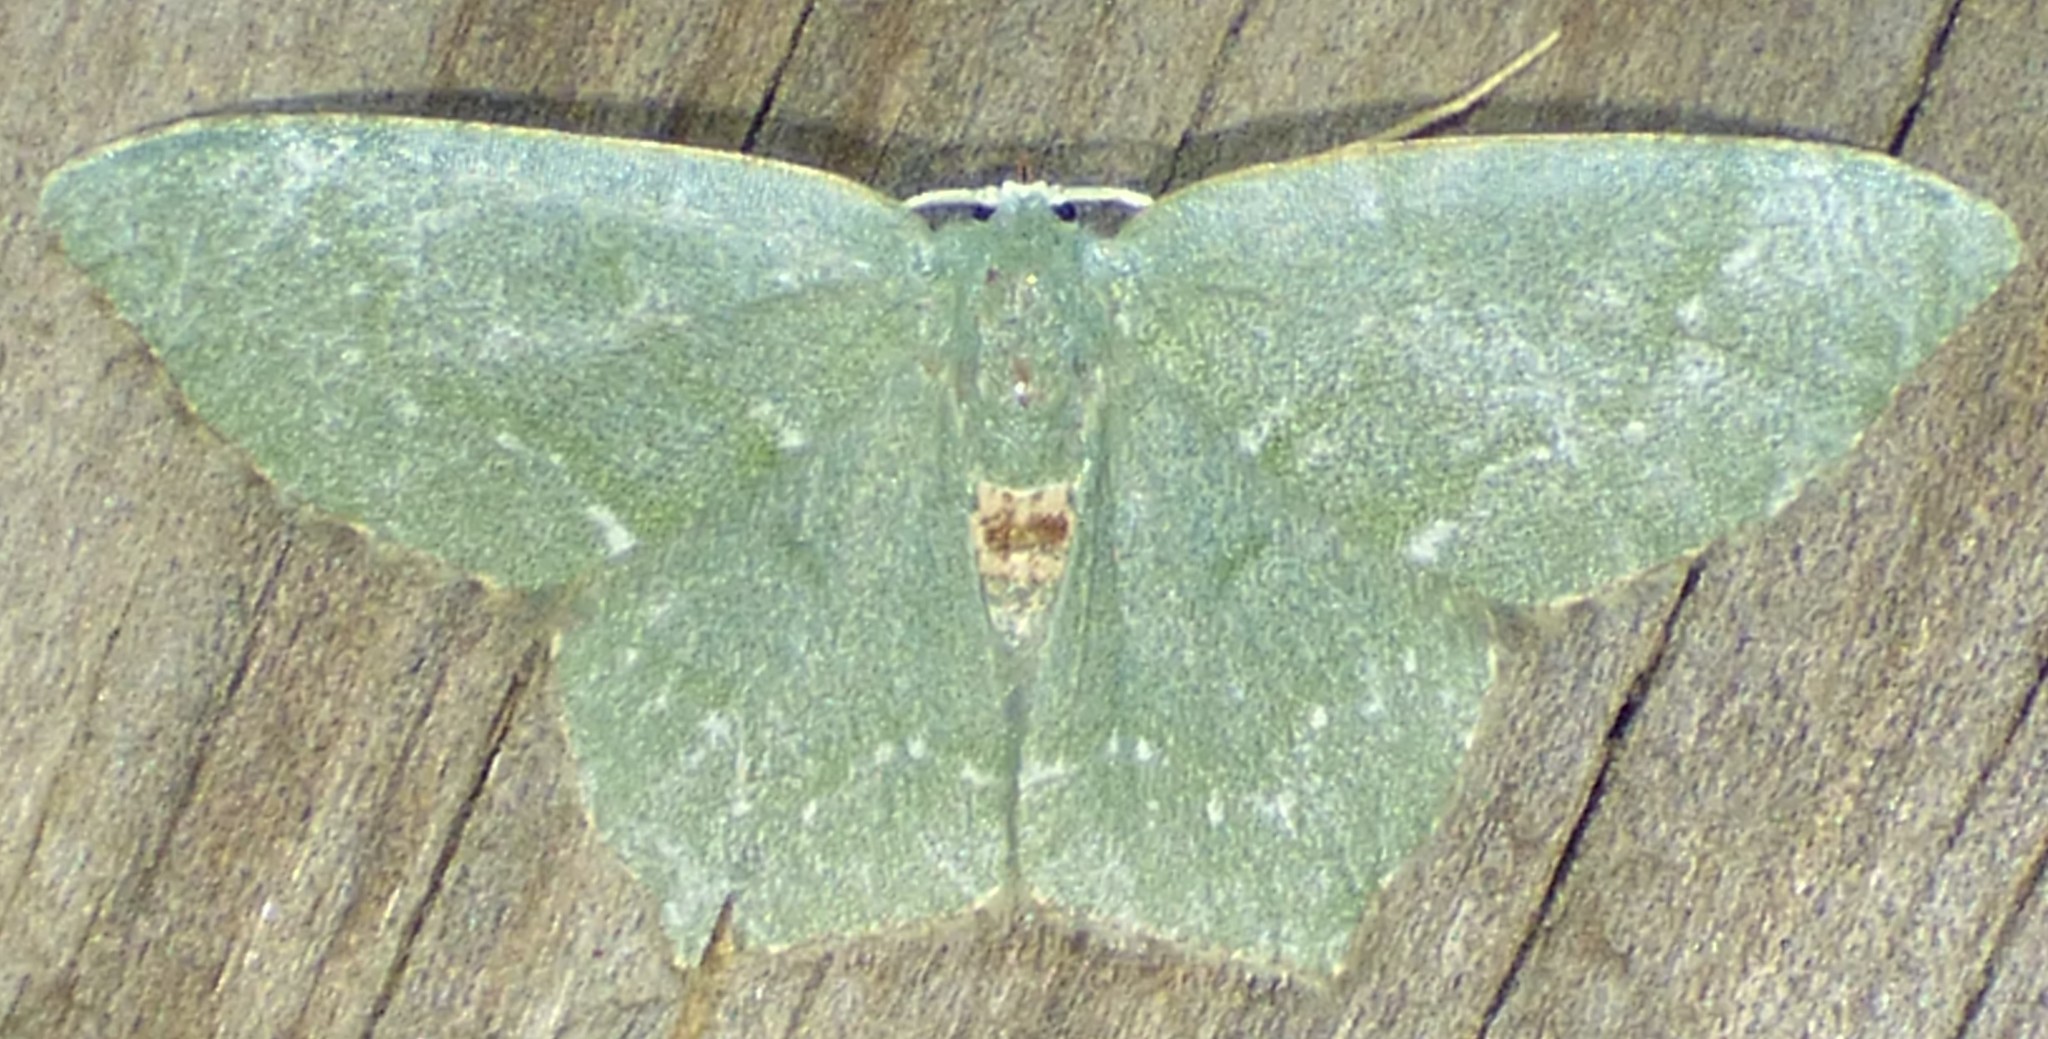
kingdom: Animalia
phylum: Arthropoda
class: Insecta
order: Lepidoptera
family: Geometridae
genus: Chloropteryx
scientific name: Chloropteryx tepperaria
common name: Angle winged emerald moth
